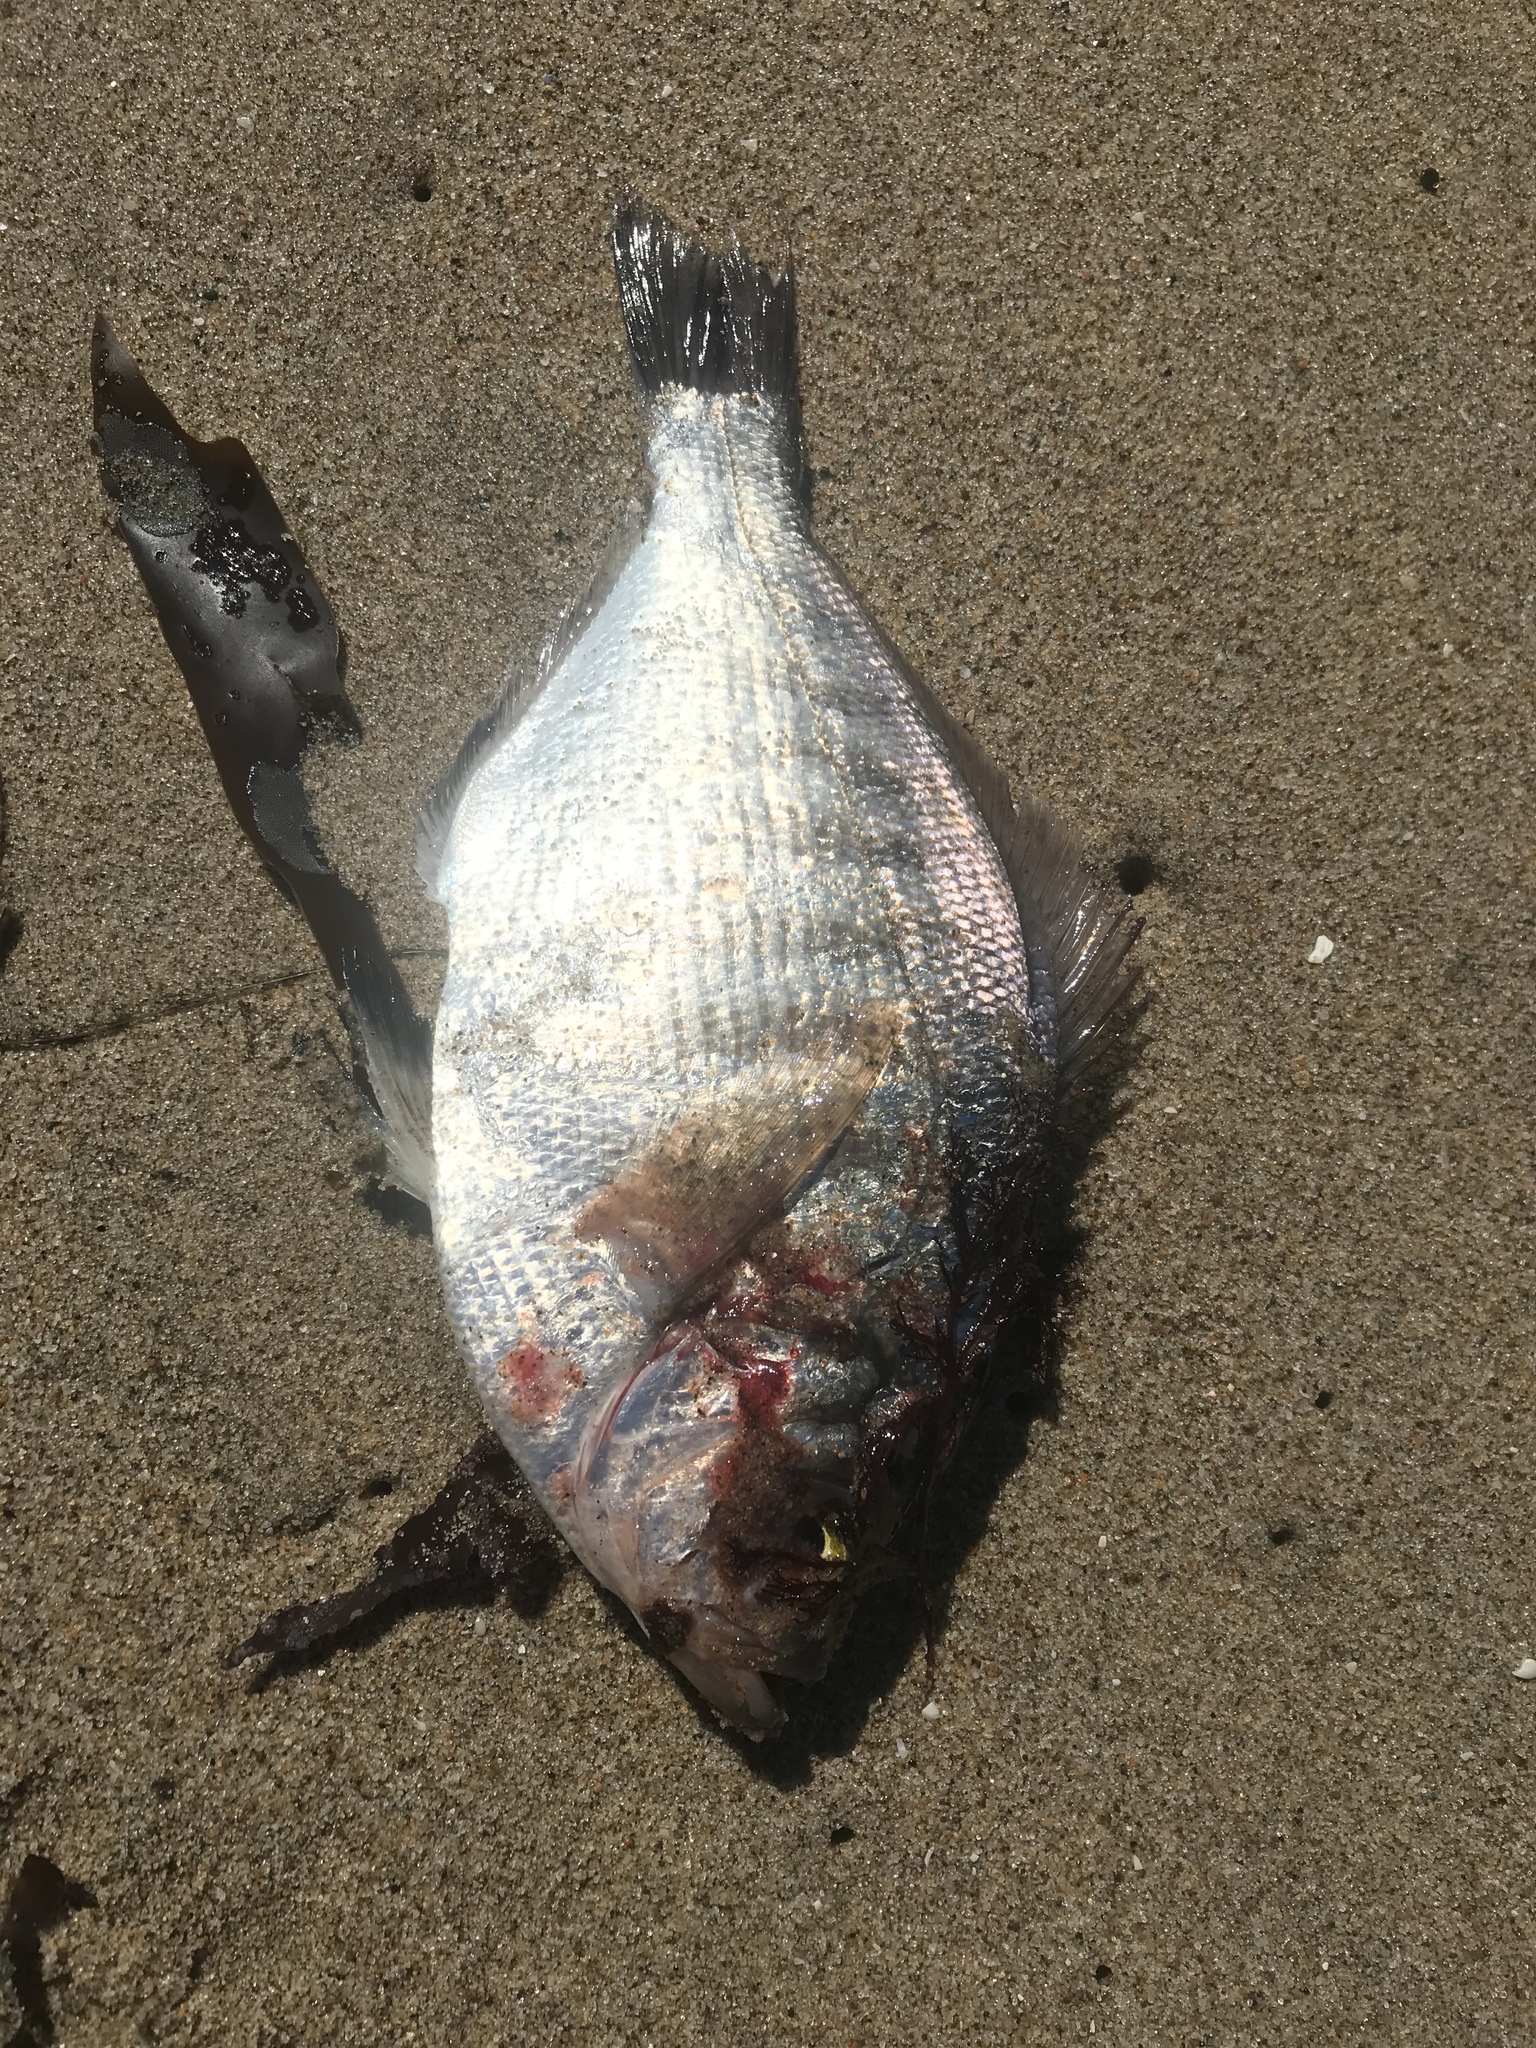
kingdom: Animalia
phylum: Chordata
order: Perciformes
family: Embiotocidae
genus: Hyperprosopon
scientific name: Hyperprosopon argenteum
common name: Walleye surfperch
